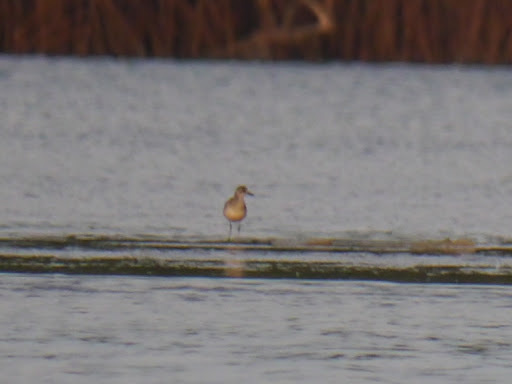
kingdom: Animalia
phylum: Chordata
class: Aves
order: Charadriiformes
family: Charadriidae
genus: Pluvialis
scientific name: Pluvialis squatarola
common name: Grey plover
